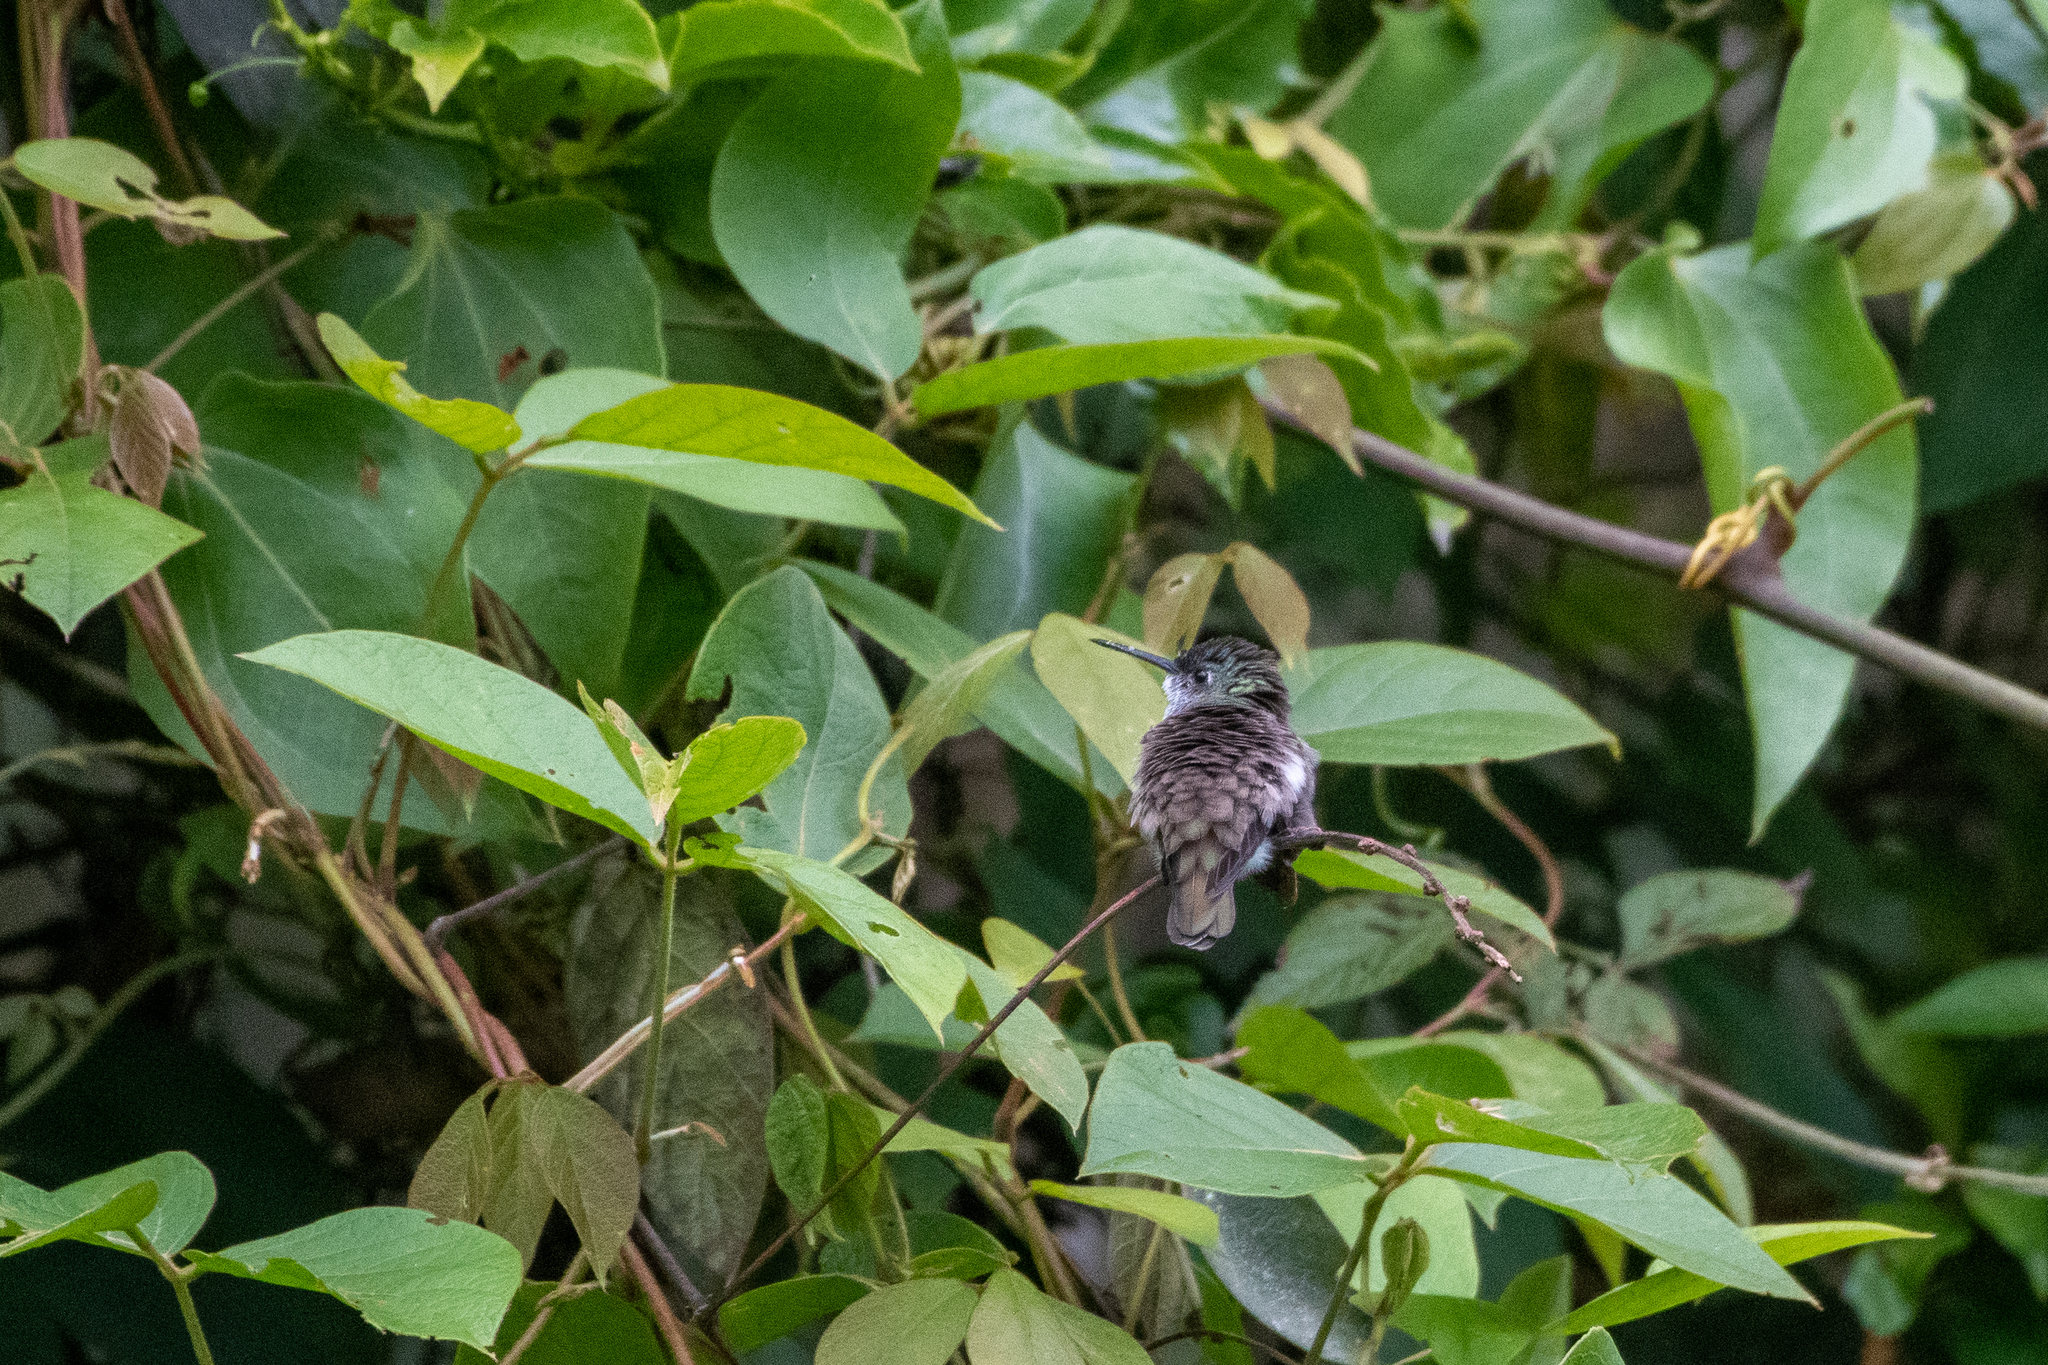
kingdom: Animalia
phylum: Chordata
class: Aves
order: Apodiformes
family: Trochilidae
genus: Saucerottia
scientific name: Saucerottia cyanocephala
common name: Azure-crowned hummingbird
